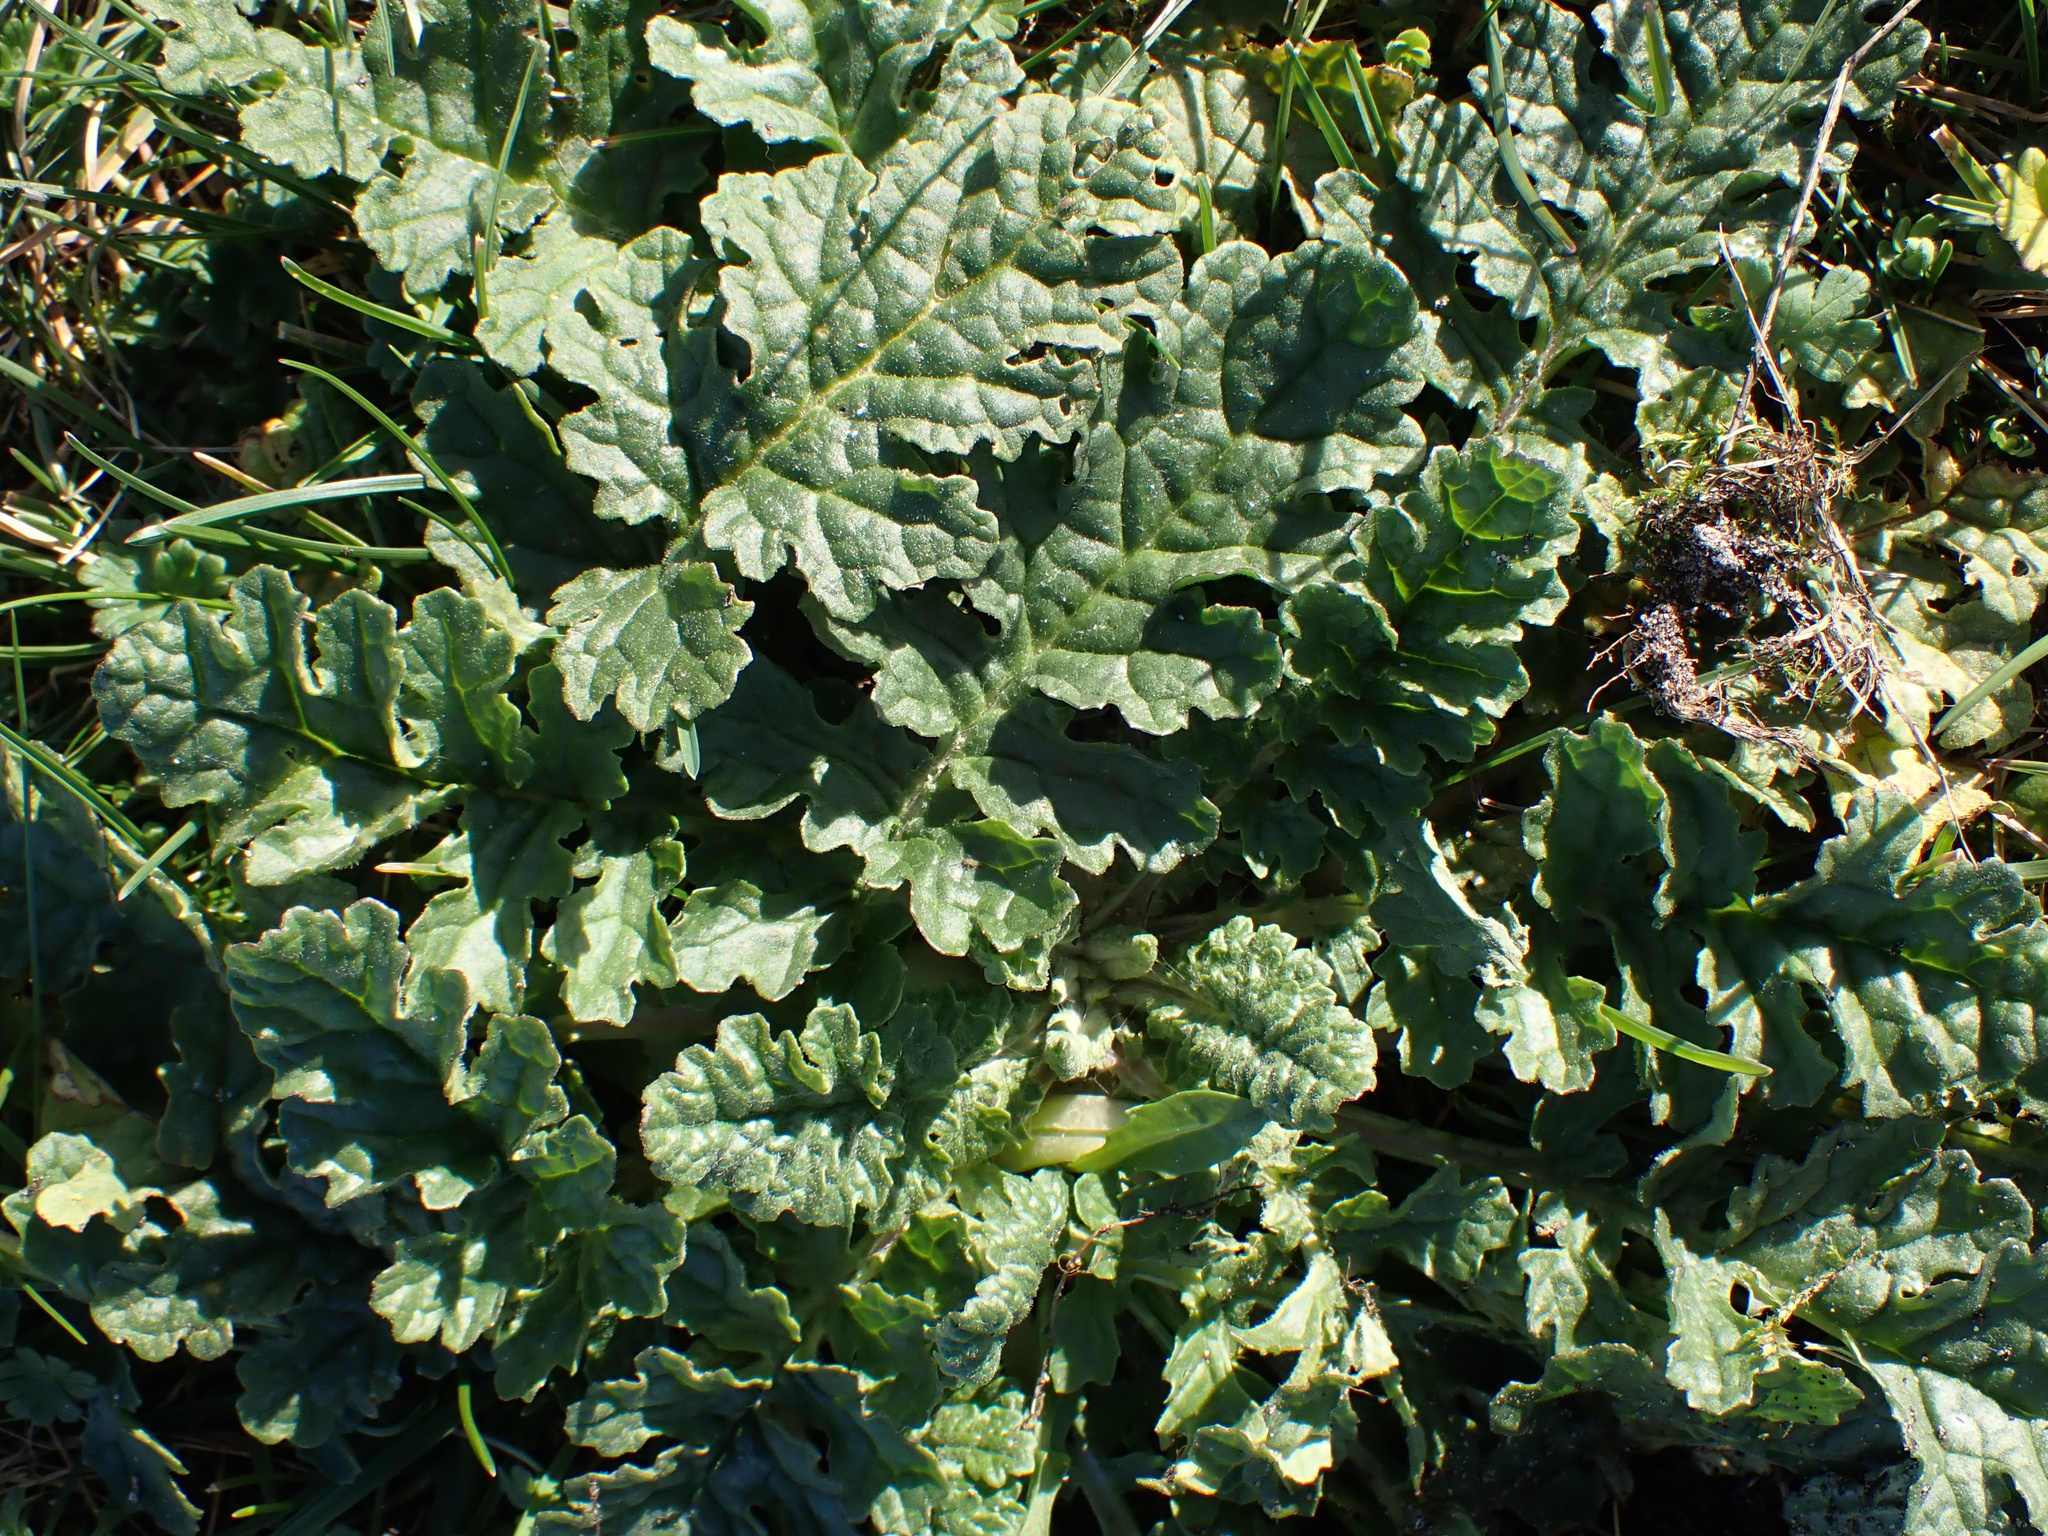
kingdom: Plantae
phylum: Tracheophyta
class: Magnoliopsida
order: Asterales
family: Asteraceae
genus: Jacobaea
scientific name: Jacobaea vulgaris
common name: Stinking willie
